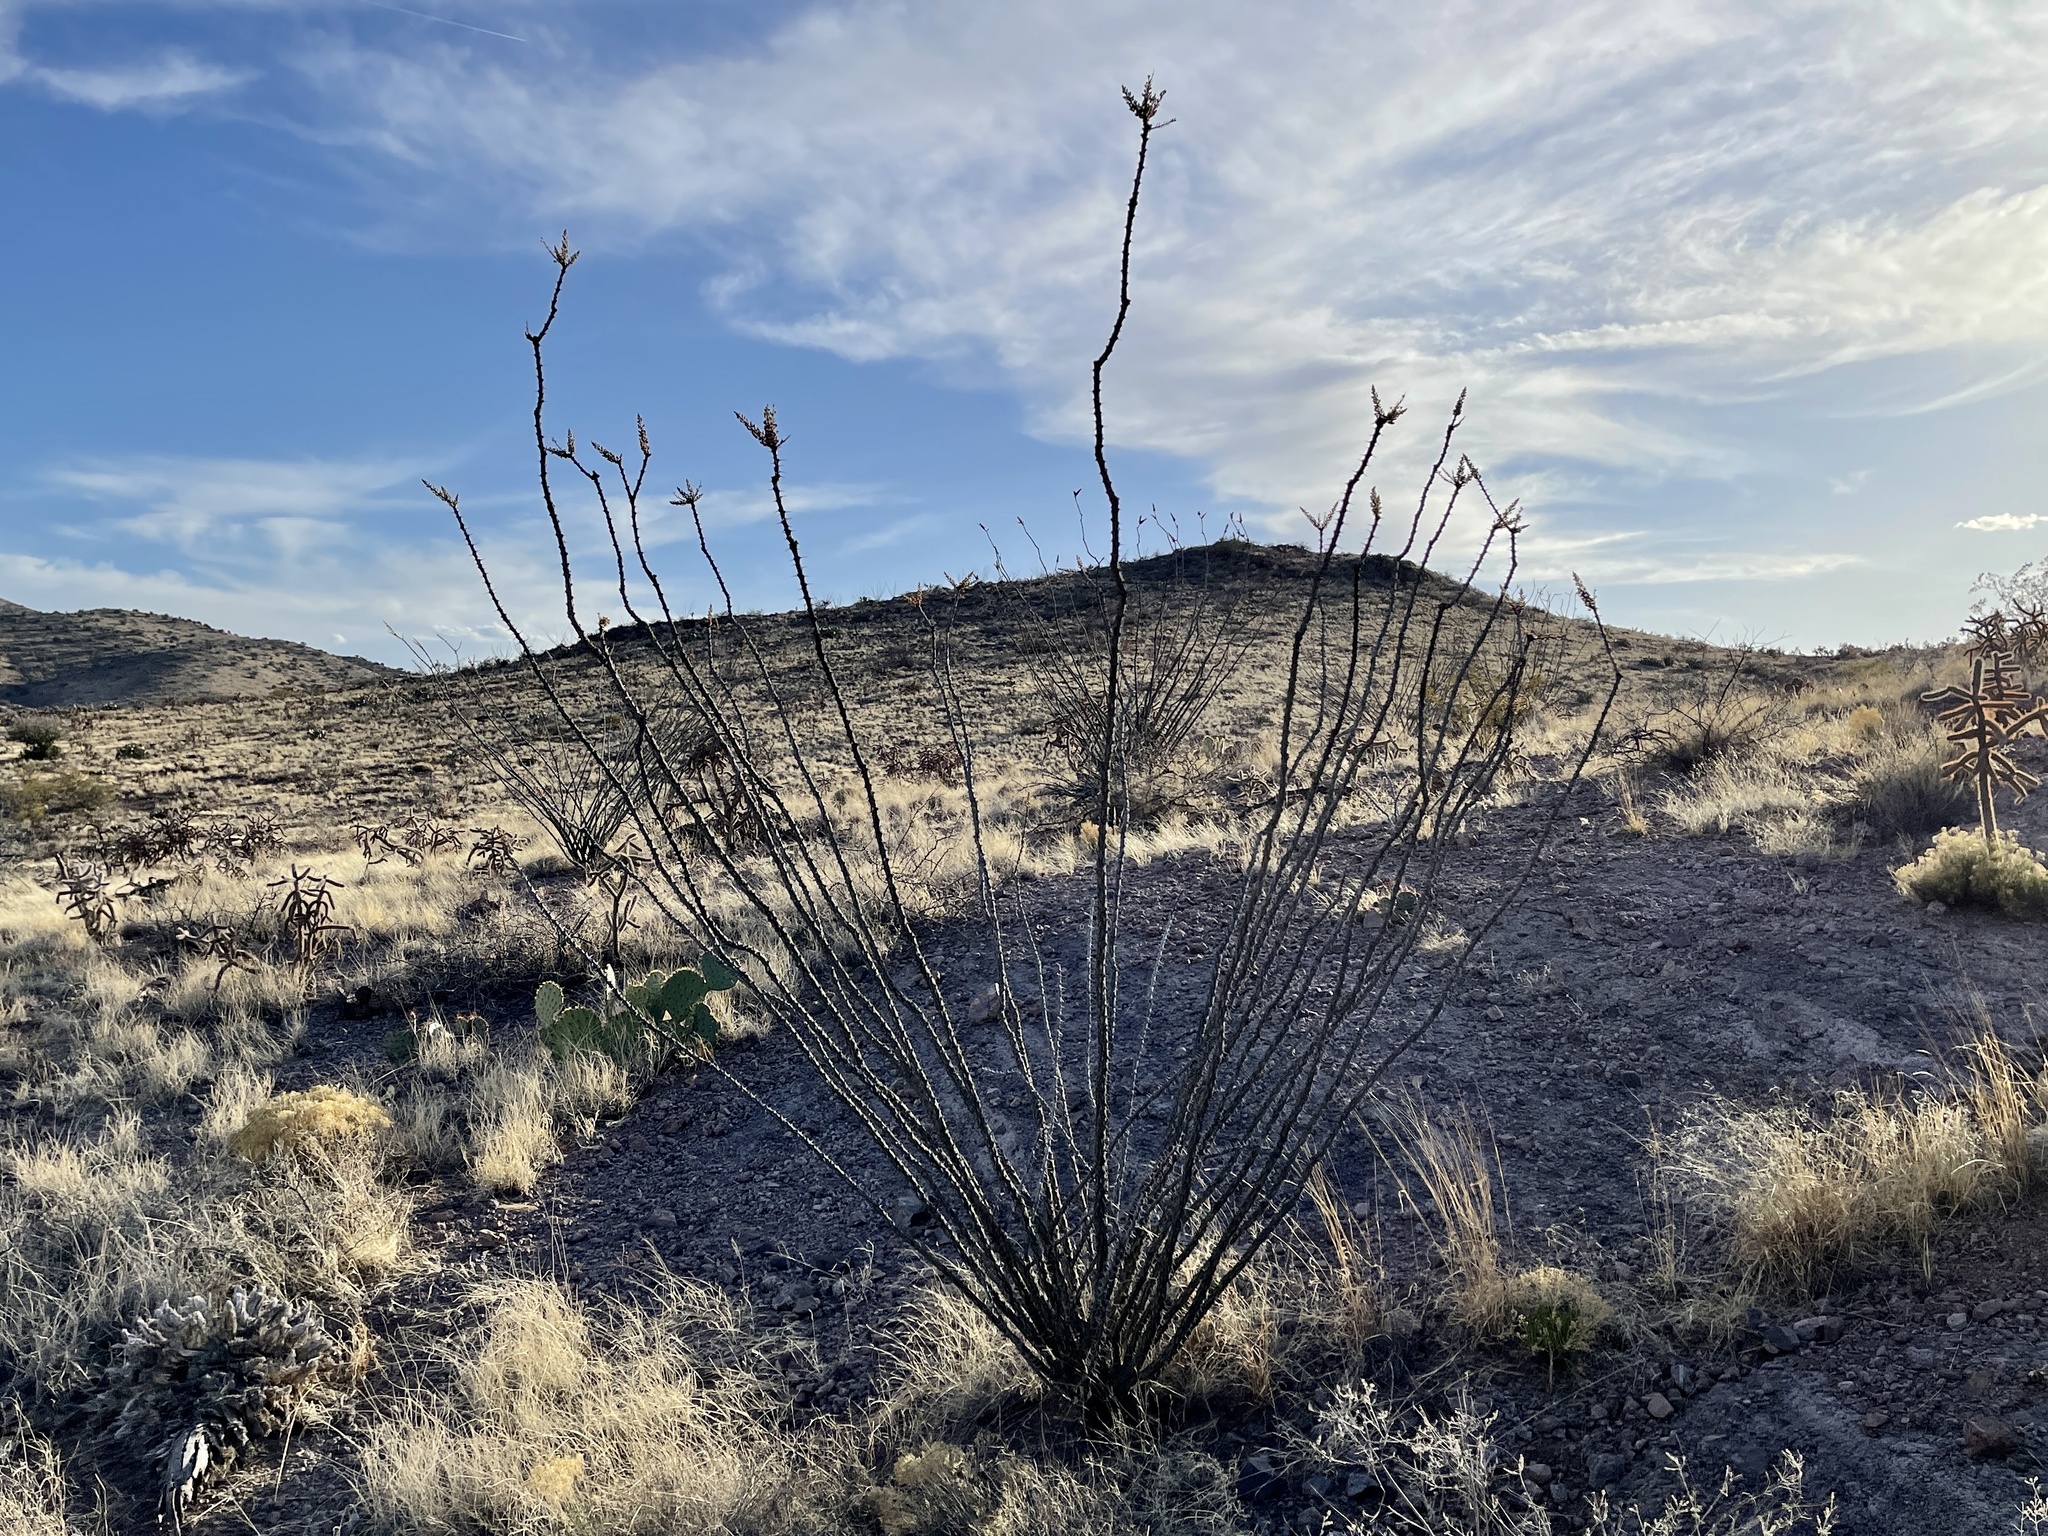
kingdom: Plantae
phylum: Tracheophyta
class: Magnoliopsida
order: Ericales
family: Fouquieriaceae
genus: Fouquieria
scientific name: Fouquieria splendens
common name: Vine-cactus
